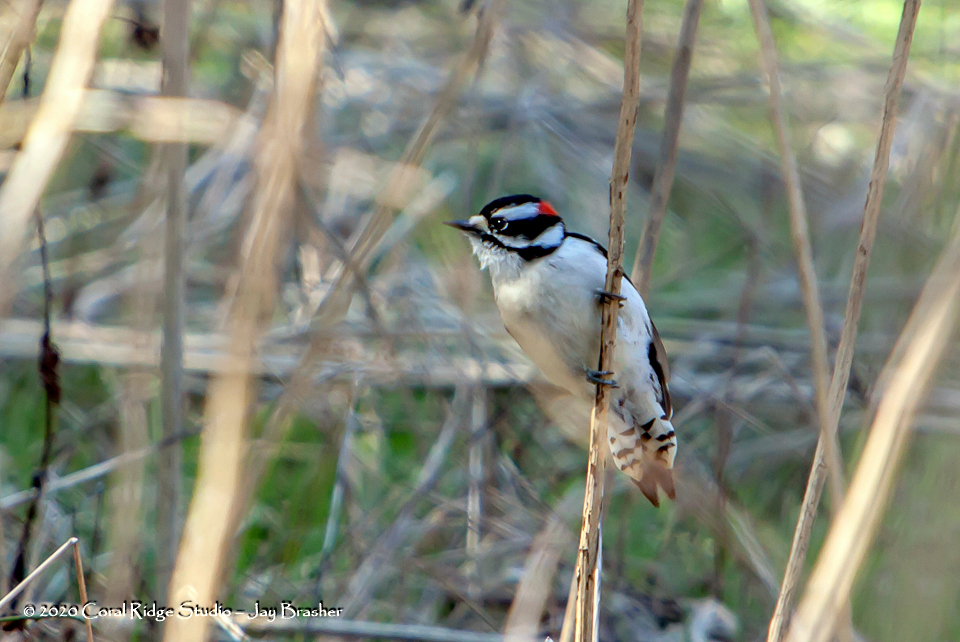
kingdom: Animalia
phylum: Chordata
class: Aves
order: Piciformes
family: Picidae
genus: Dryobates
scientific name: Dryobates pubescens
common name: Downy woodpecker
